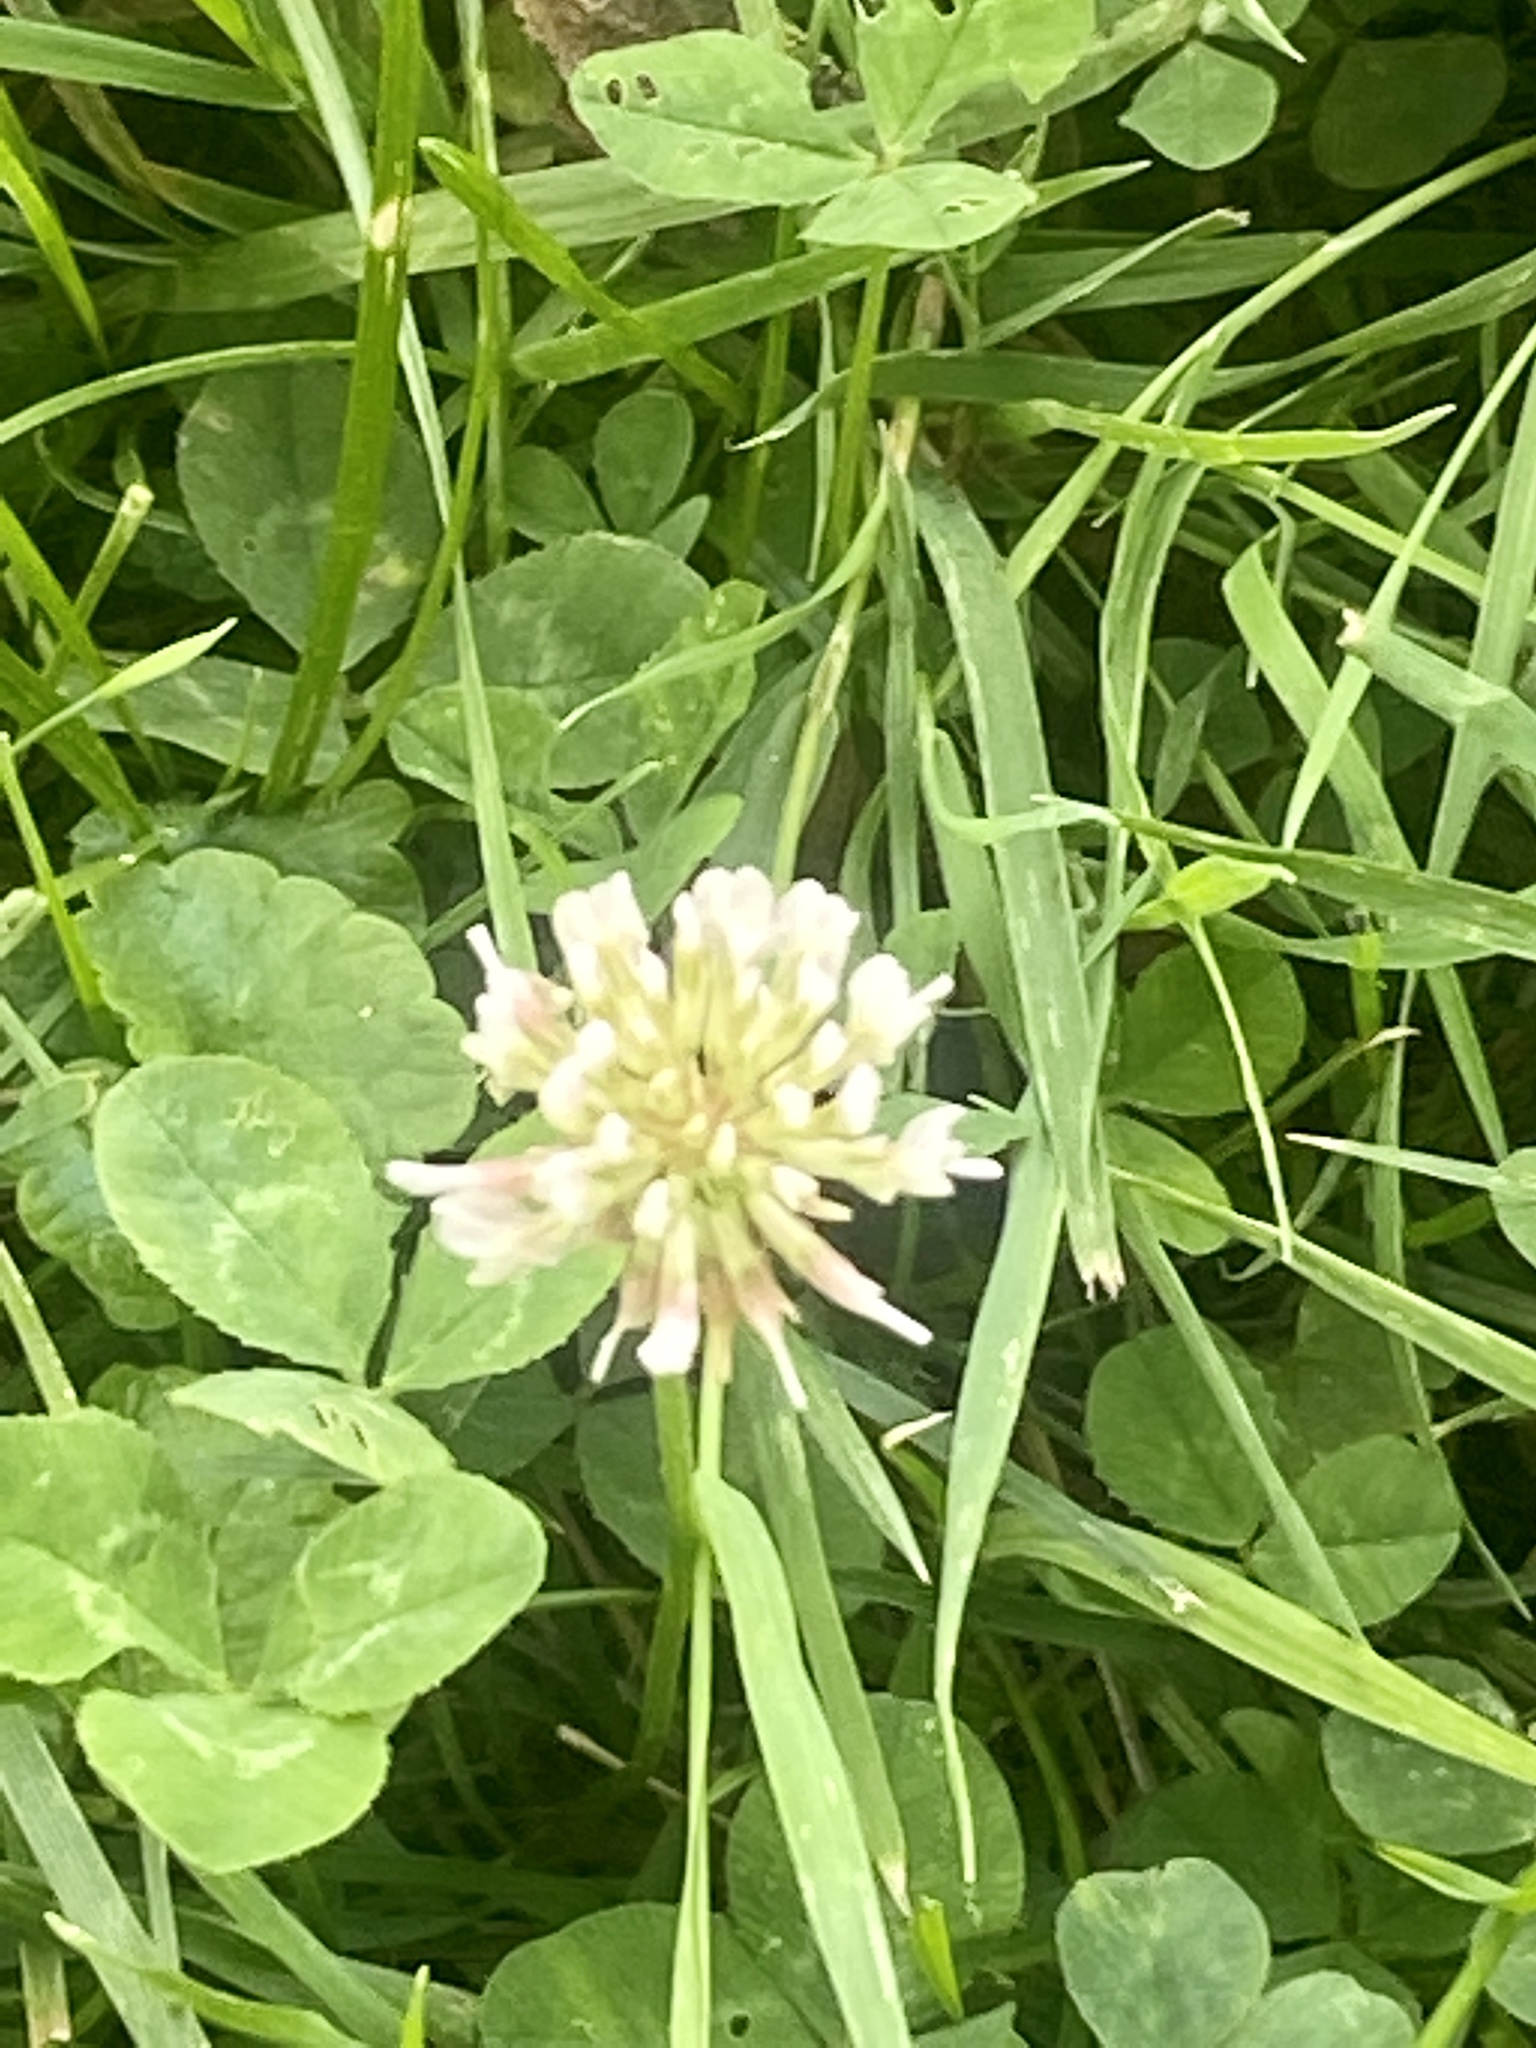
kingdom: Plantae
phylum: Tracheophyta
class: Magnoliopsida
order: Fabales
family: Fabaceae
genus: Trifolium
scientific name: Trifolium repens
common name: White clover
